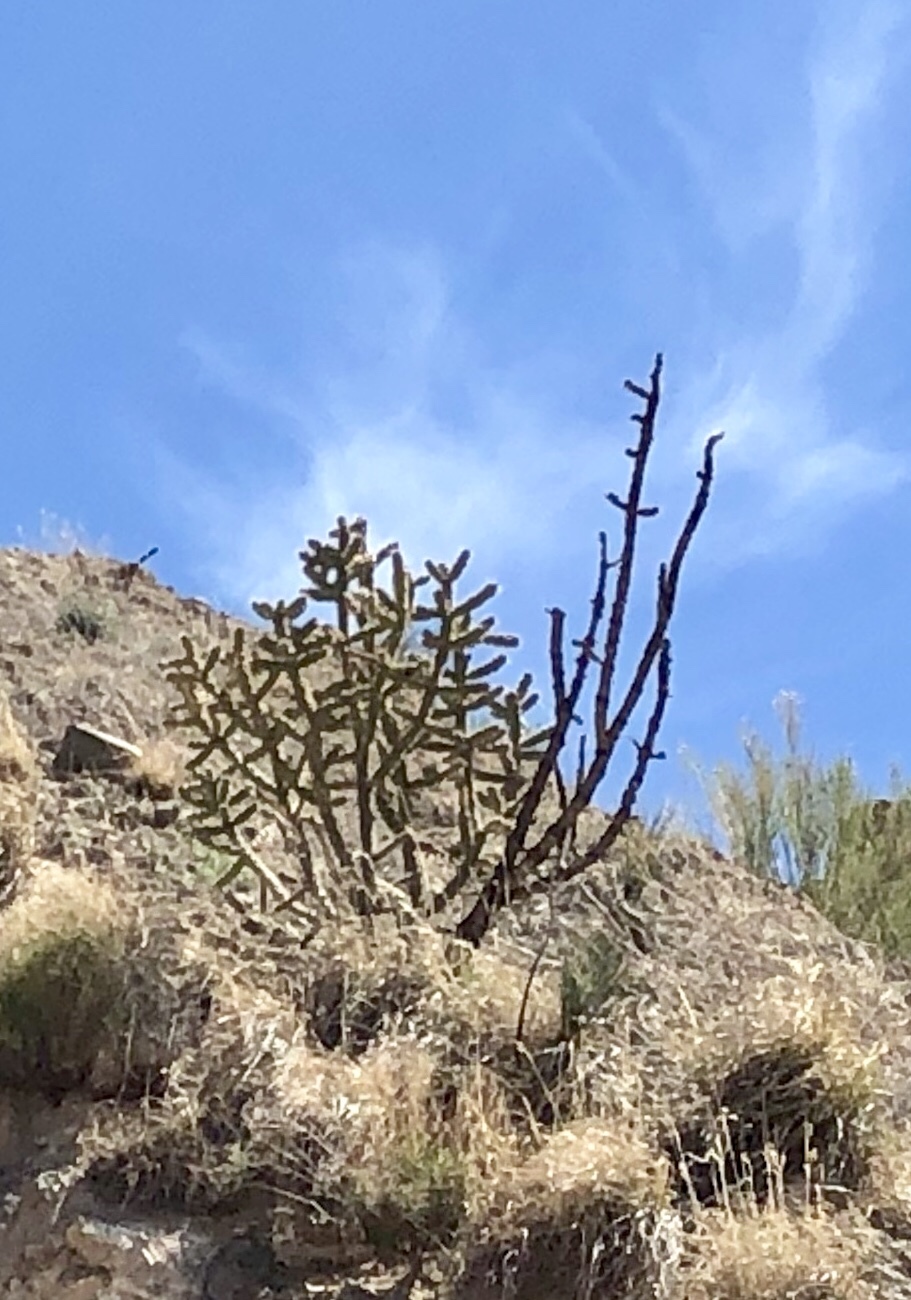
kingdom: Plantae
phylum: Tracheophyta
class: Magnoliopsida
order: Caryophyllales
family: Cactaceae
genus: Cylindropuntia
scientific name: Cylindropuntia imbricata
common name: Candelabrum cactus
